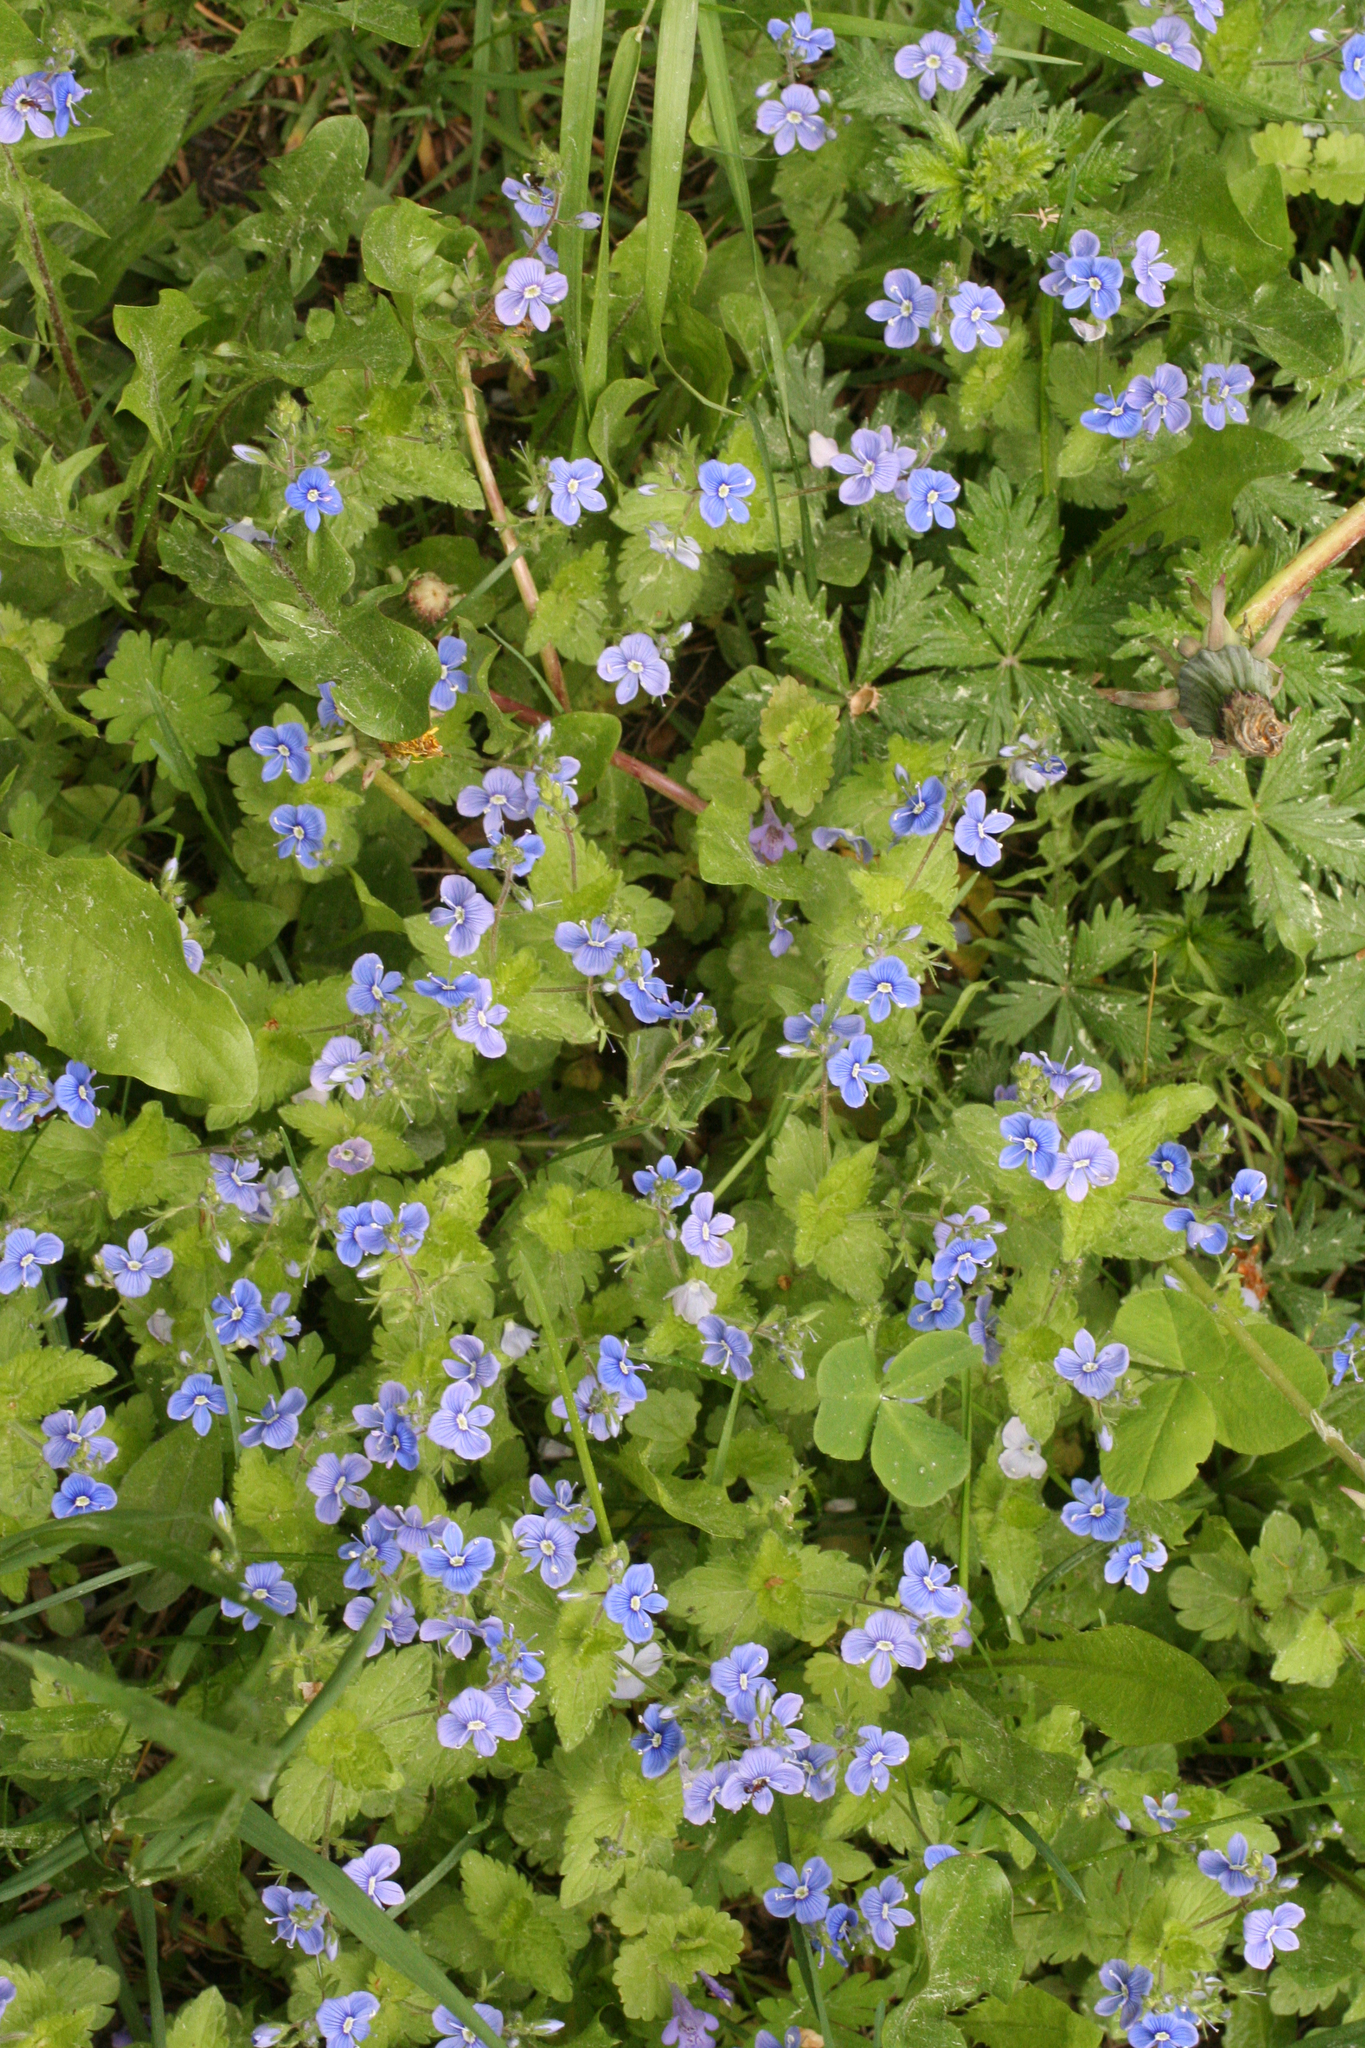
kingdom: Plantae
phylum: Tracheophyta
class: Magnoliopsida
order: Lamiales
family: Plantaginaceae
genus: Veronica
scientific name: Veronica chamaedrys
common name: Germander speedwell
